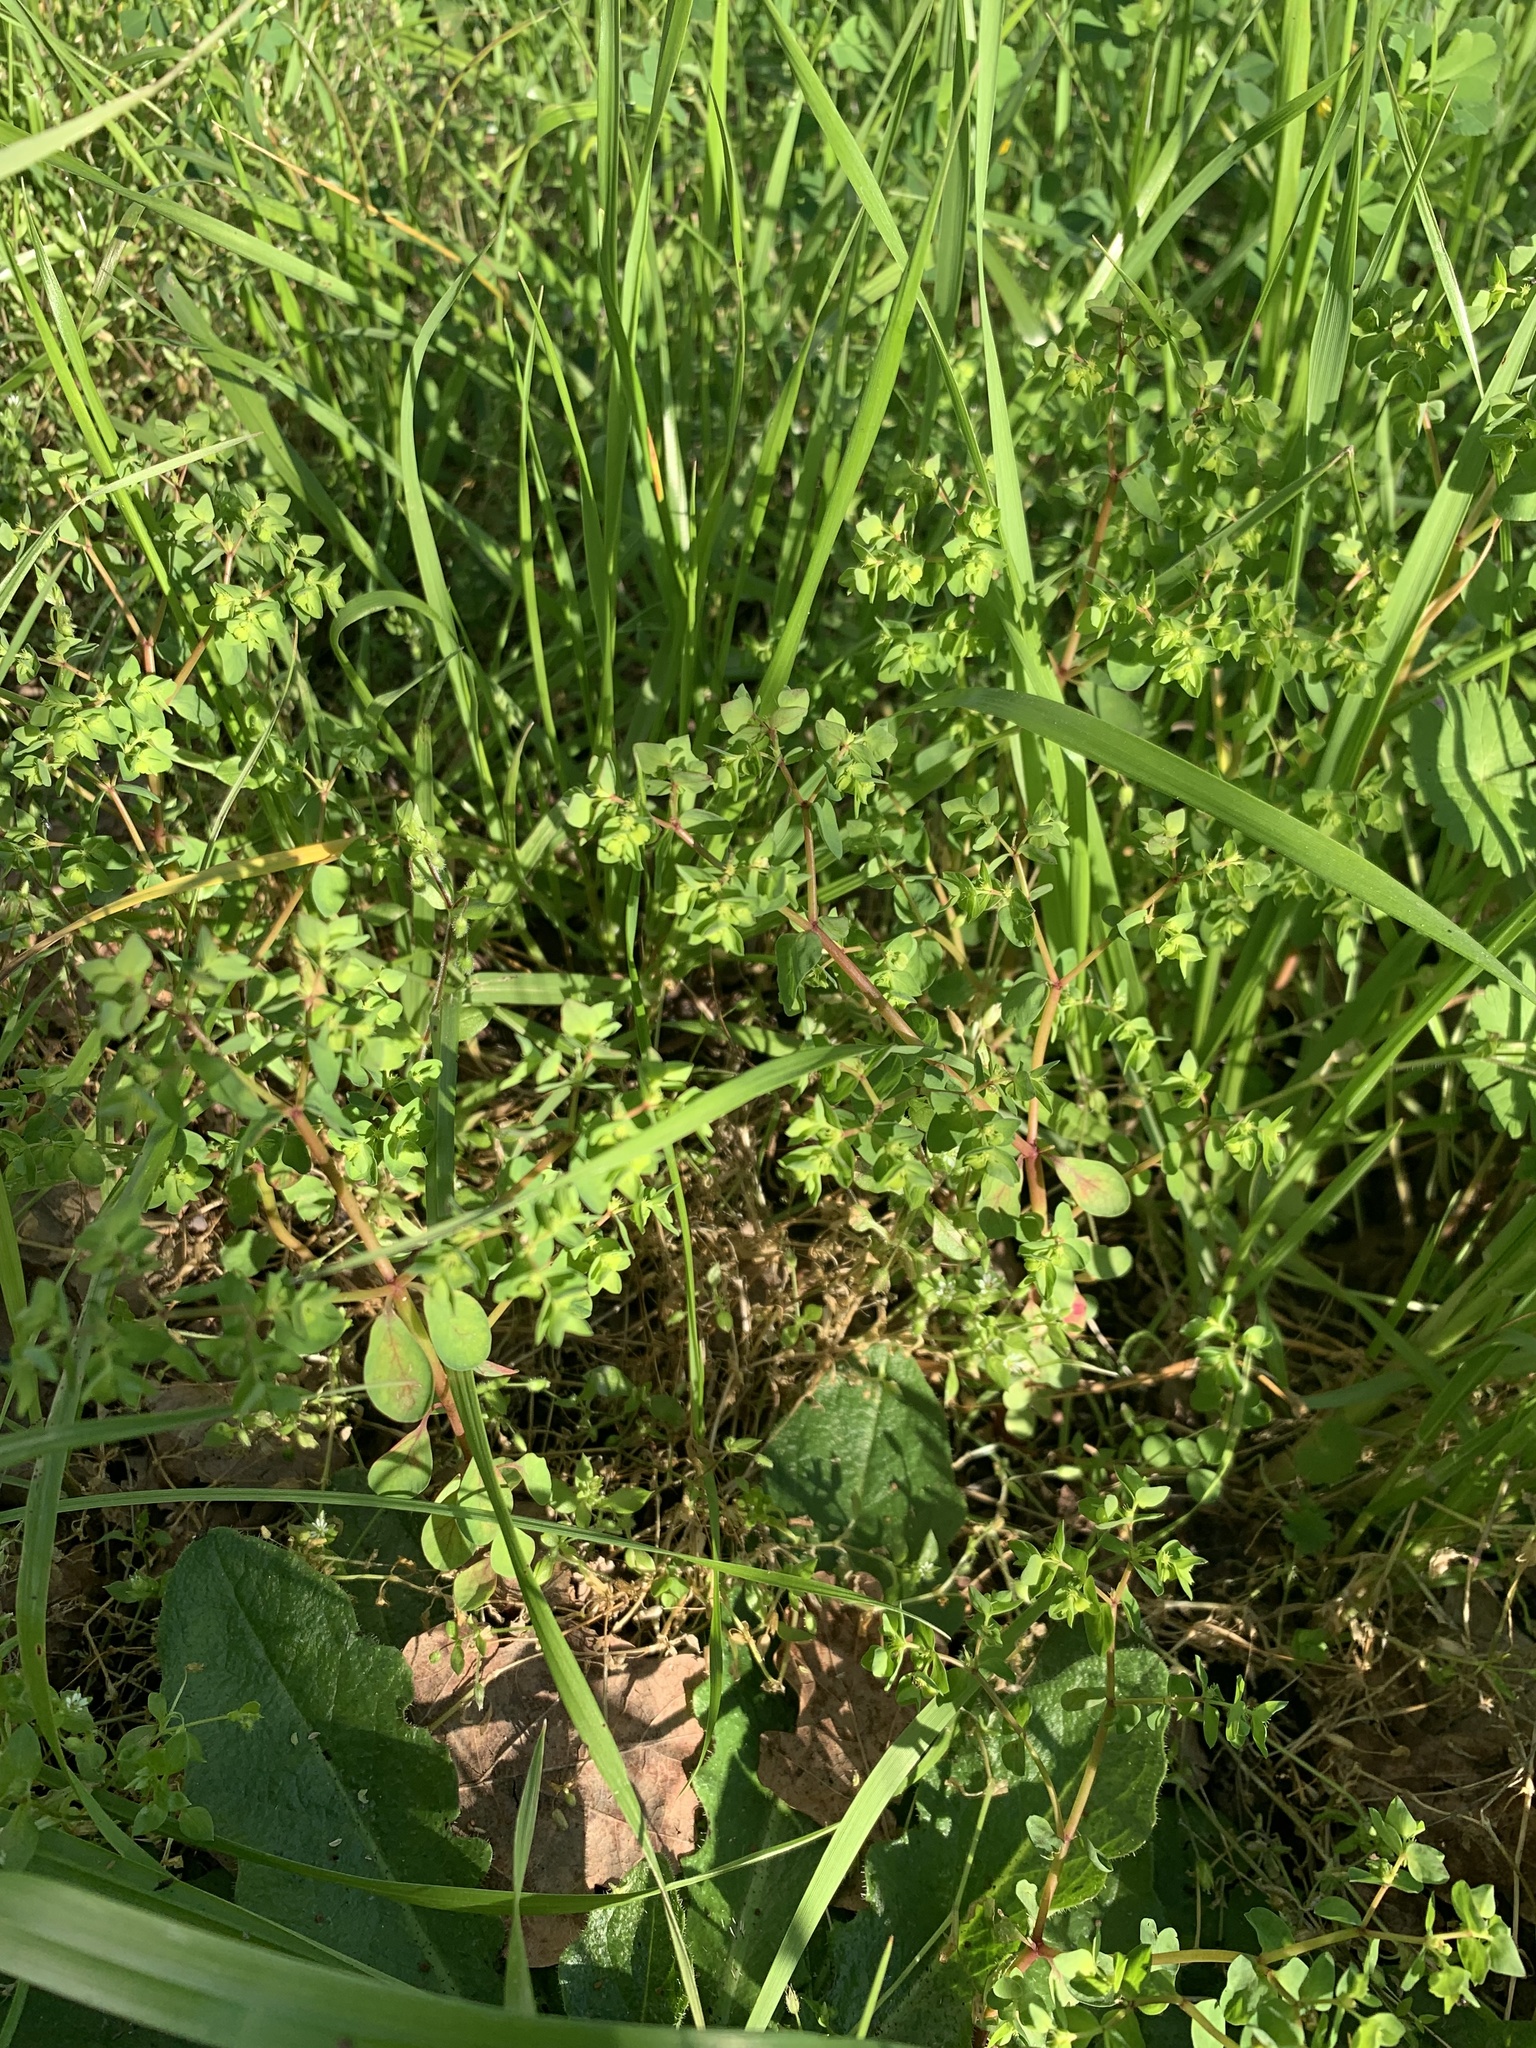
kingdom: Plantae
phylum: Tracheophyta
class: Magnoliopsida
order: Malpighiales
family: Euphorbiaceae
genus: Euphorbia
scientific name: Euphorbia peplus
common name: Petty spurge
